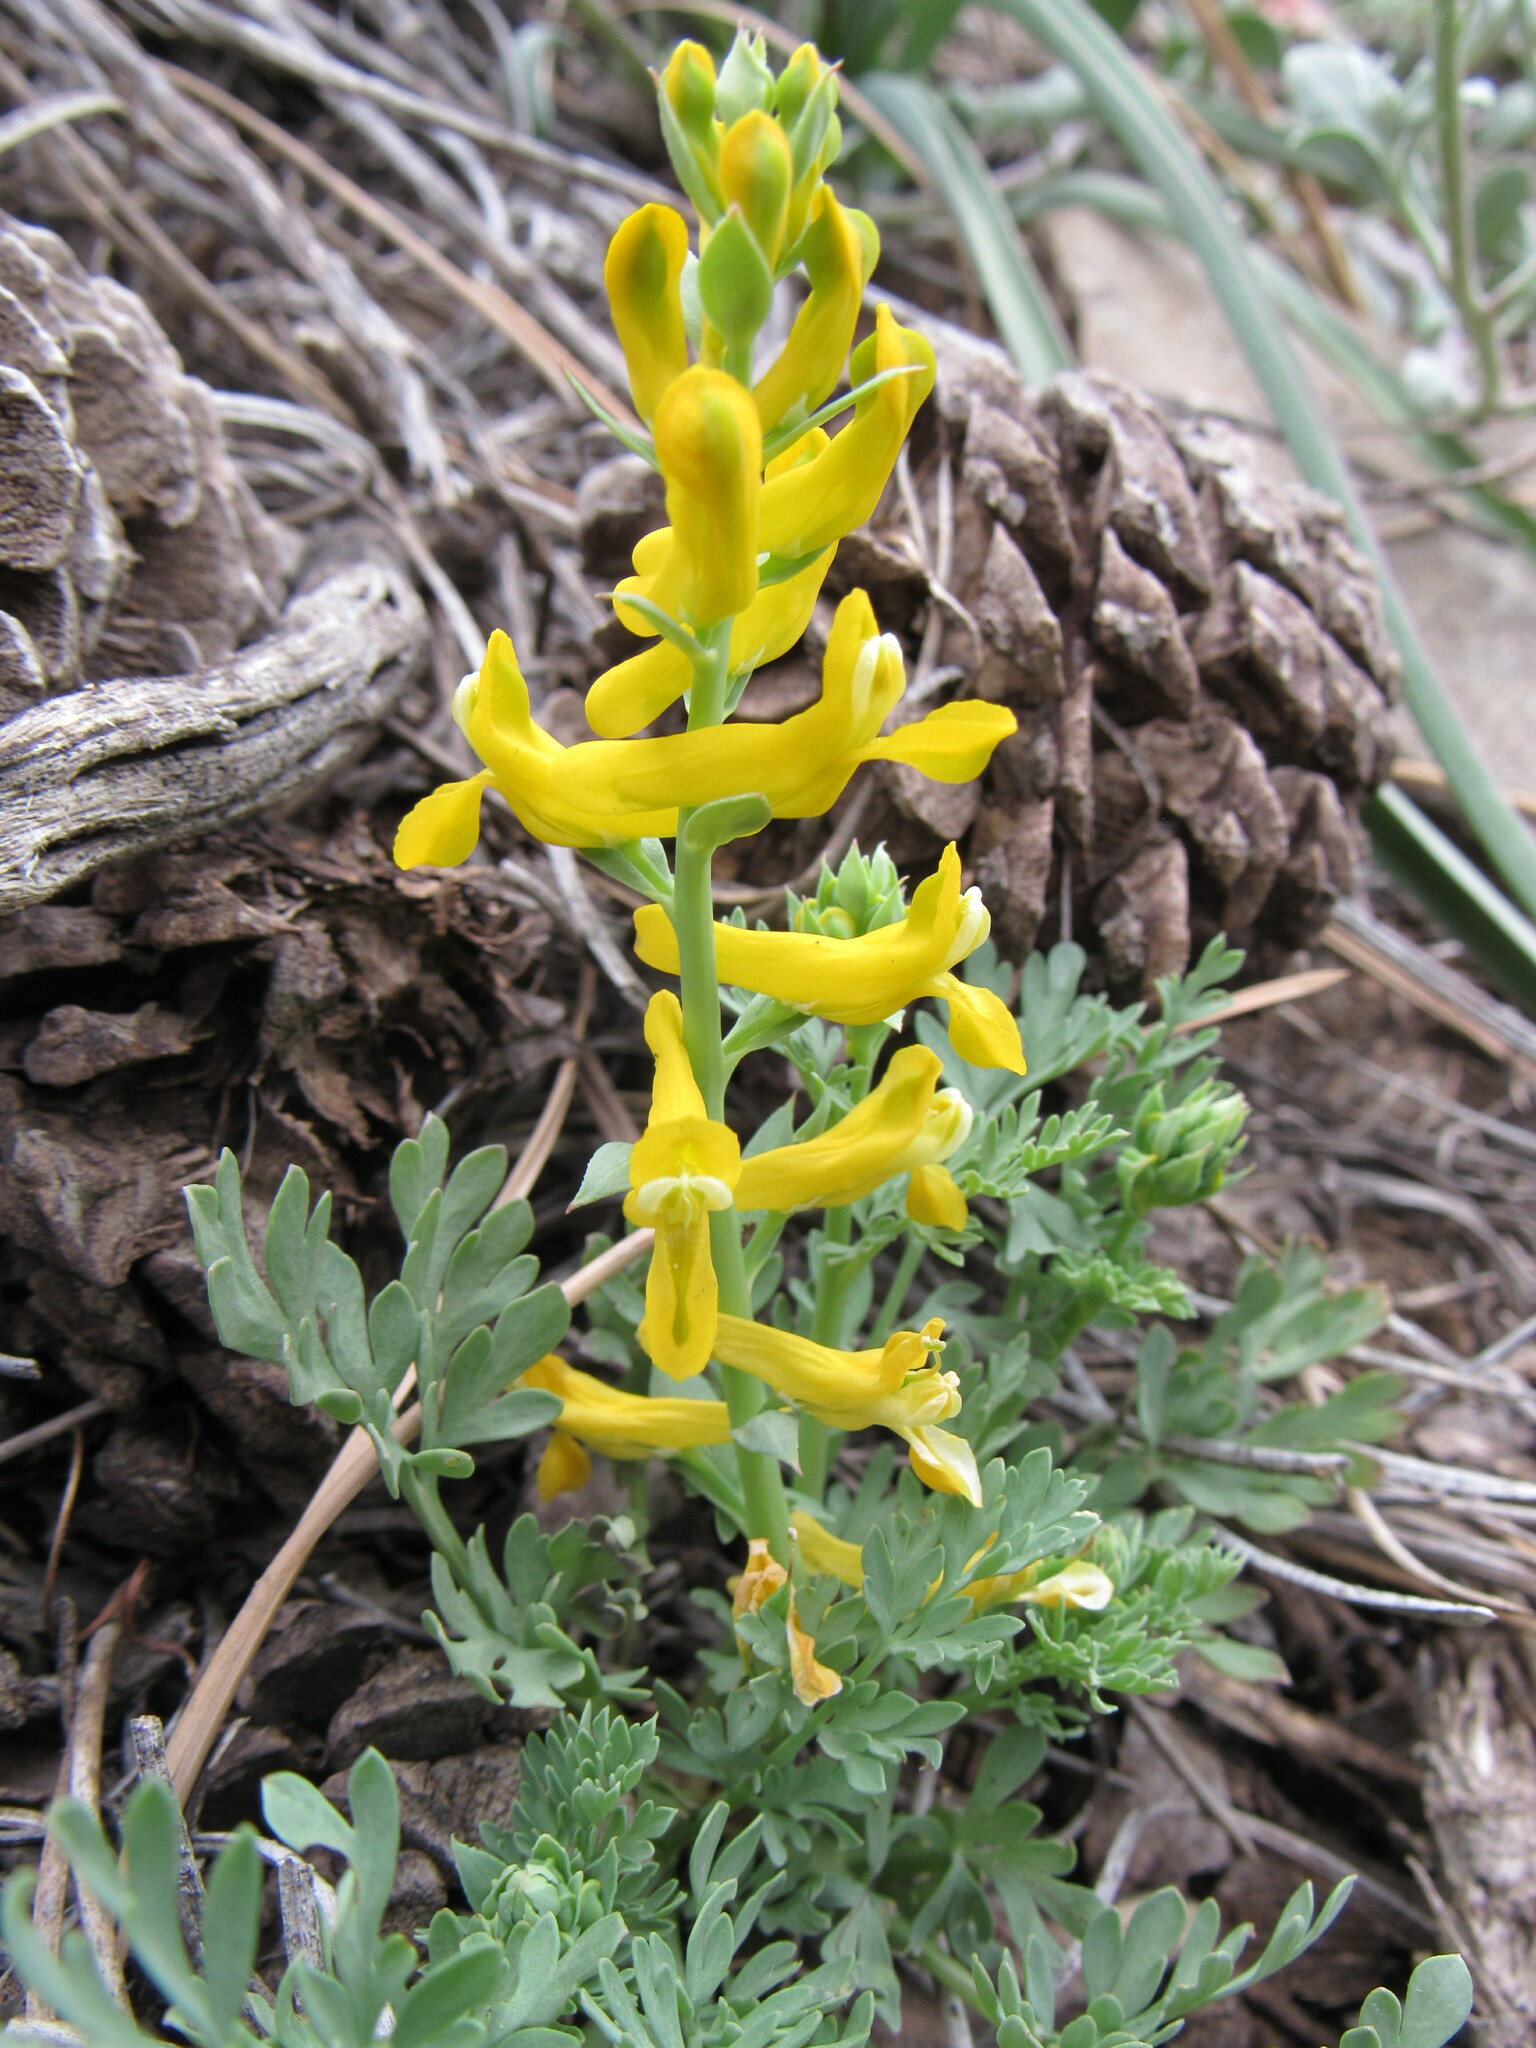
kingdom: Plantae
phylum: Tracheophyta
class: Magnoliopsida
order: Ranunculales
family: Papaveraceae
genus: Corydalis
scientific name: Corydalis aurea
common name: Golden corydalis
